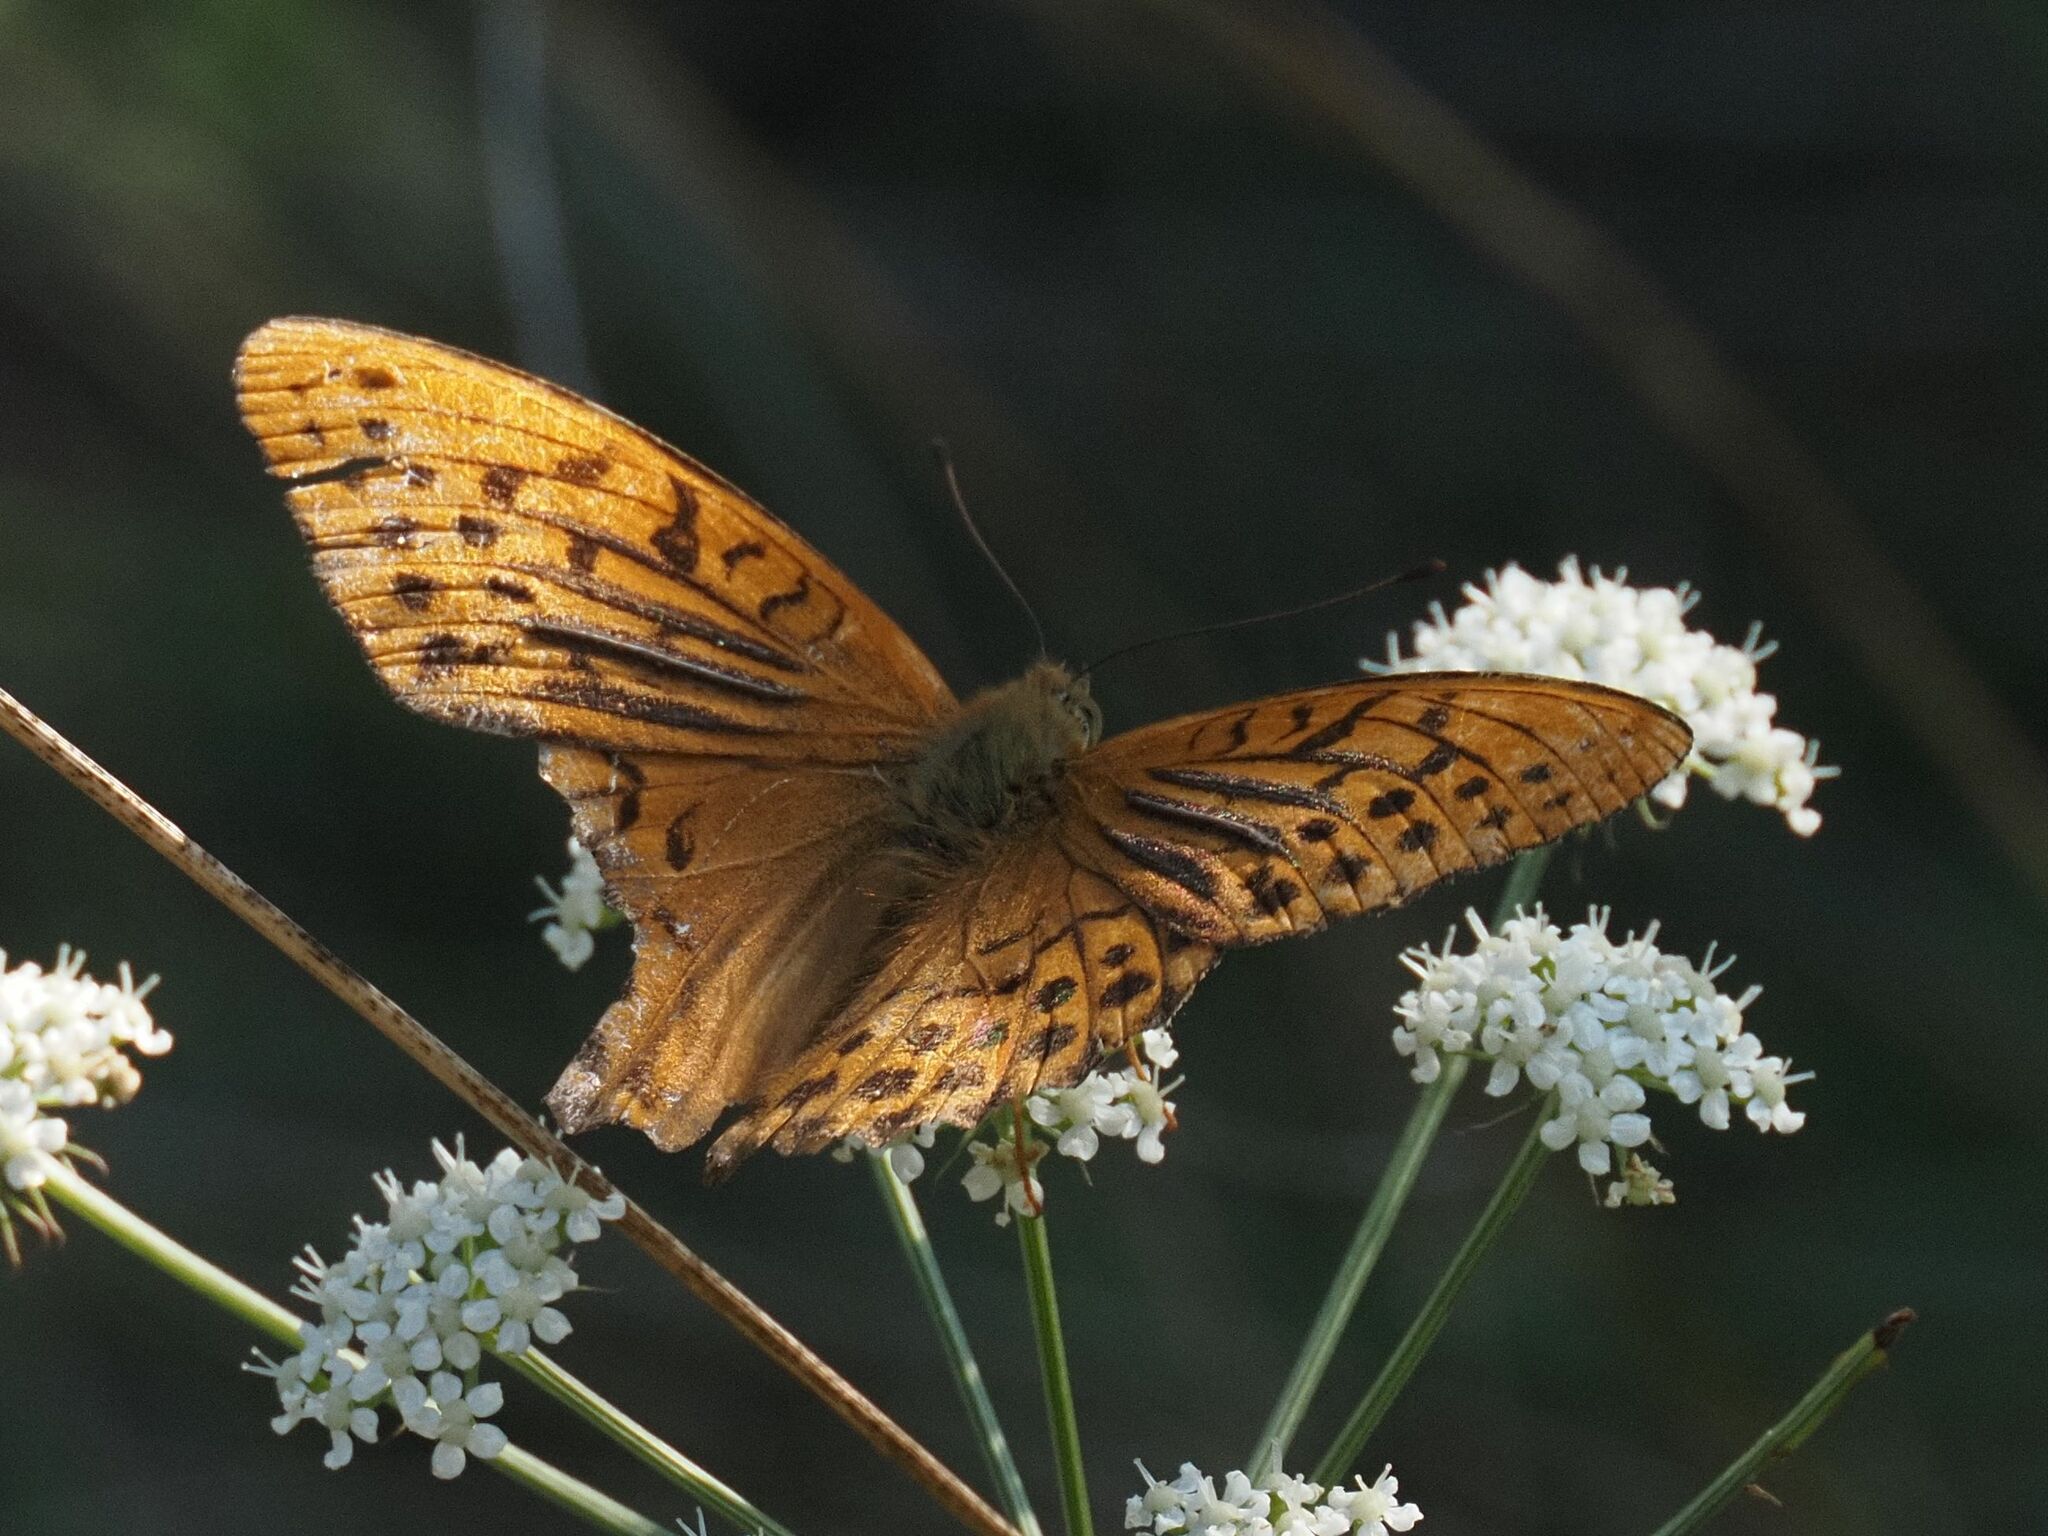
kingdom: Animalia
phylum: Arthropoda
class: Insecta
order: Lepidoptera
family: Nymphalidae
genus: Argynnis
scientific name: Argynnis paphia
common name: Silver-washed fritillary
